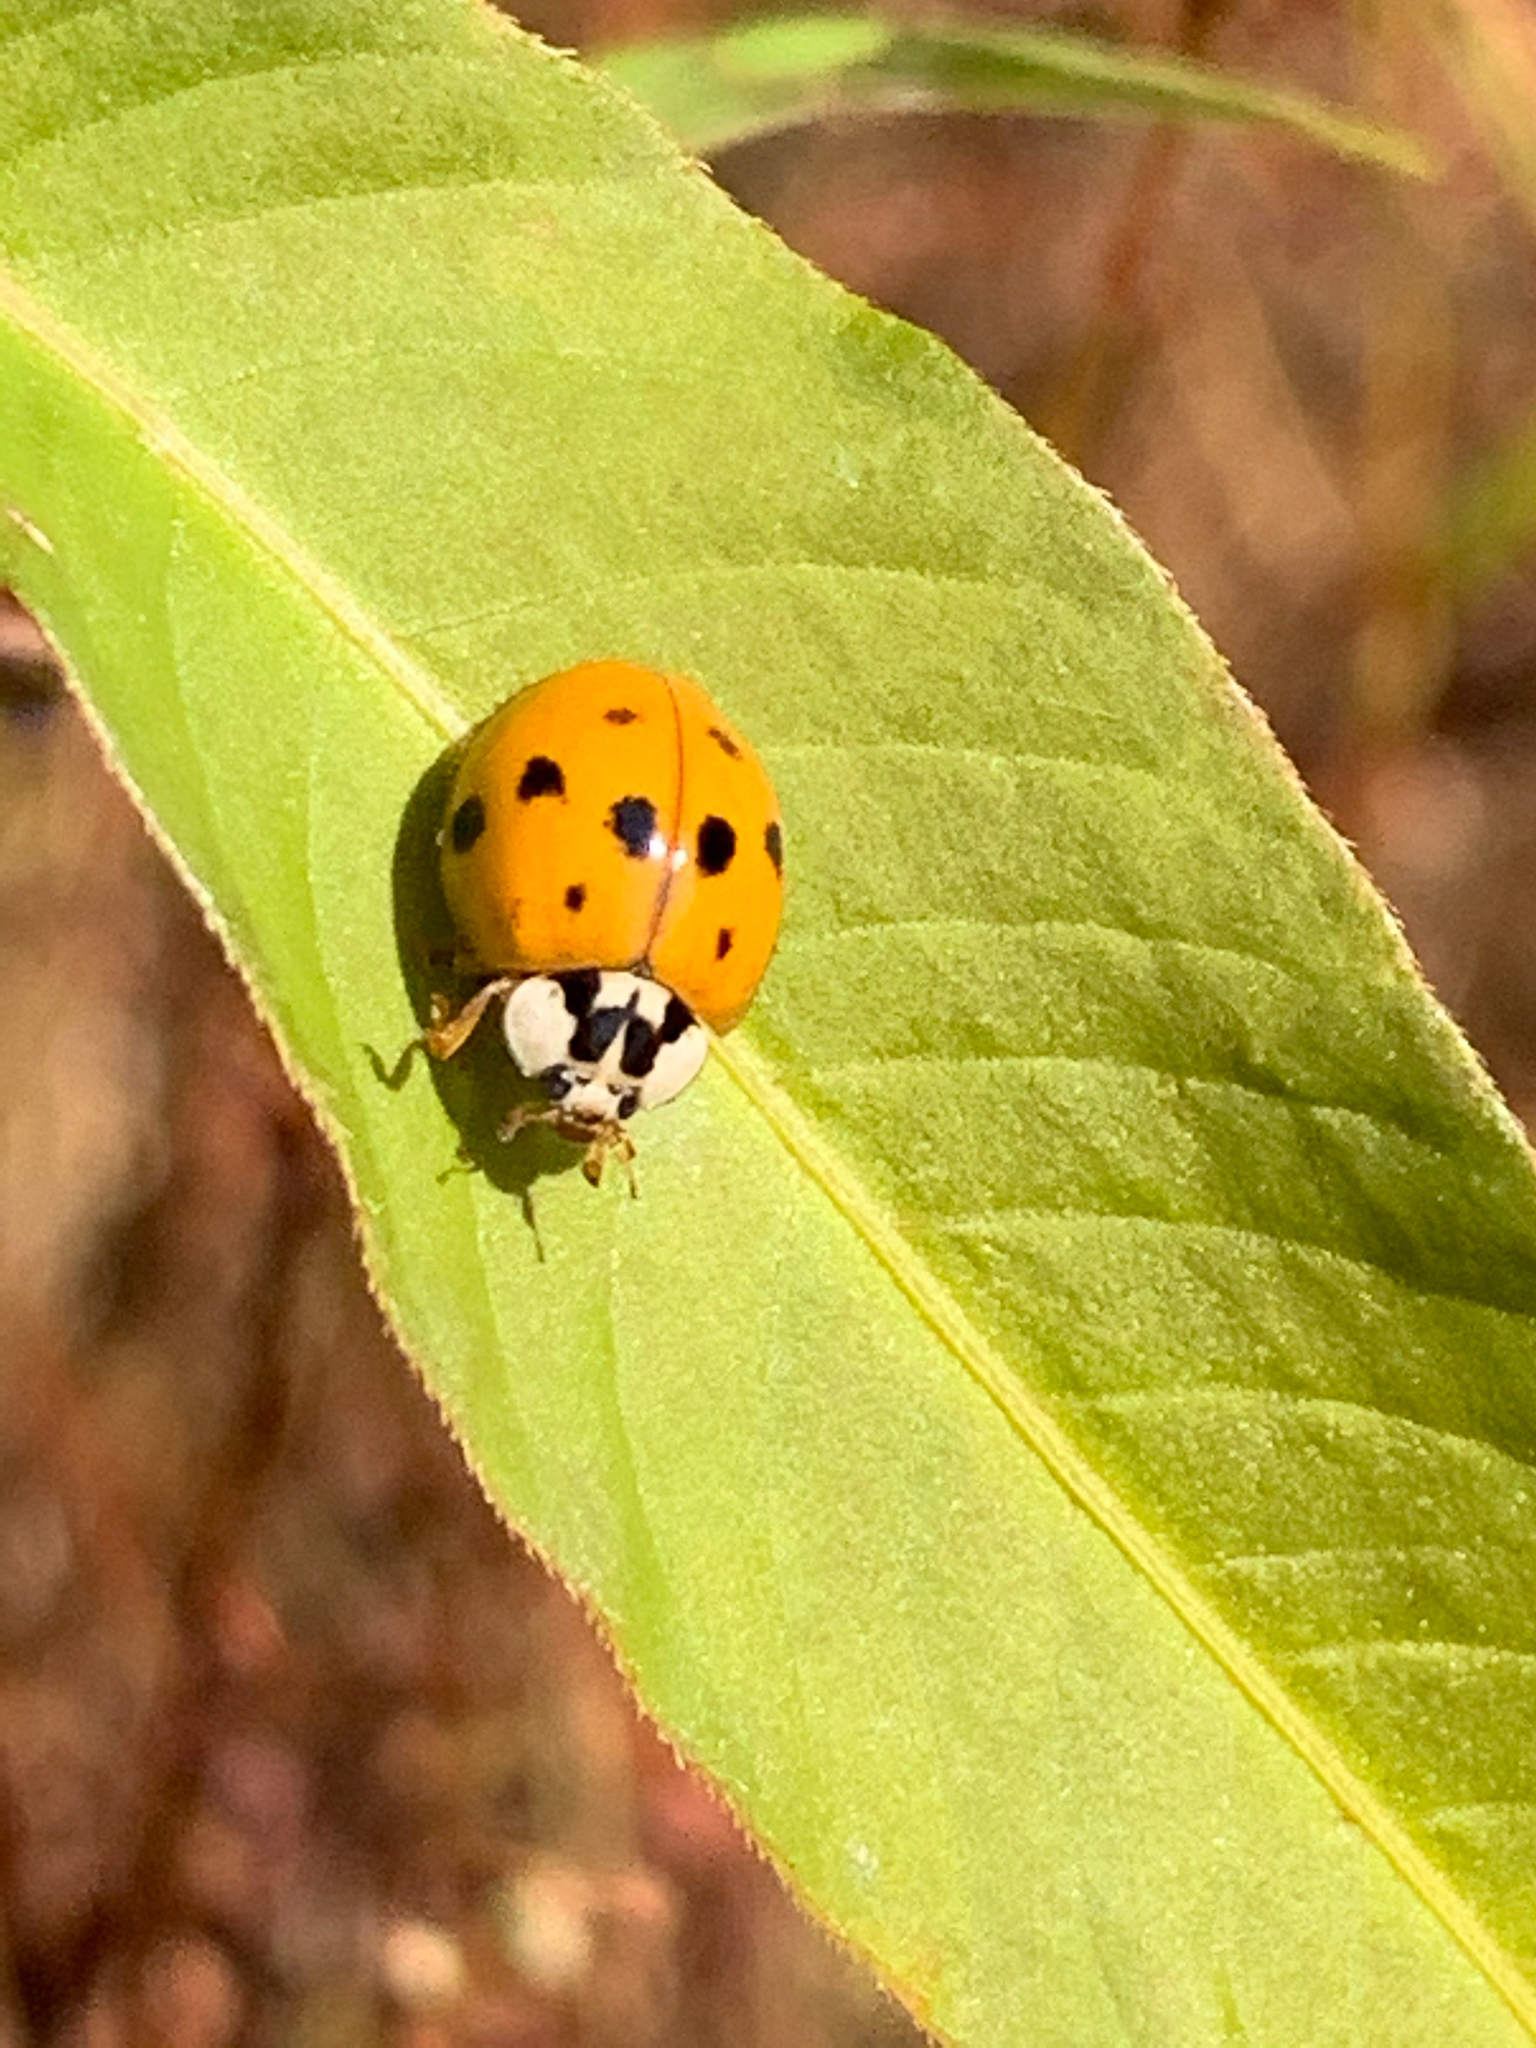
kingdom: Animalia
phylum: Arthropoda
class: Insecta
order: Coleoptera
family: Coccinellidae
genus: Harmonia
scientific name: Harmonia axyridis
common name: Harlequin ladybird
